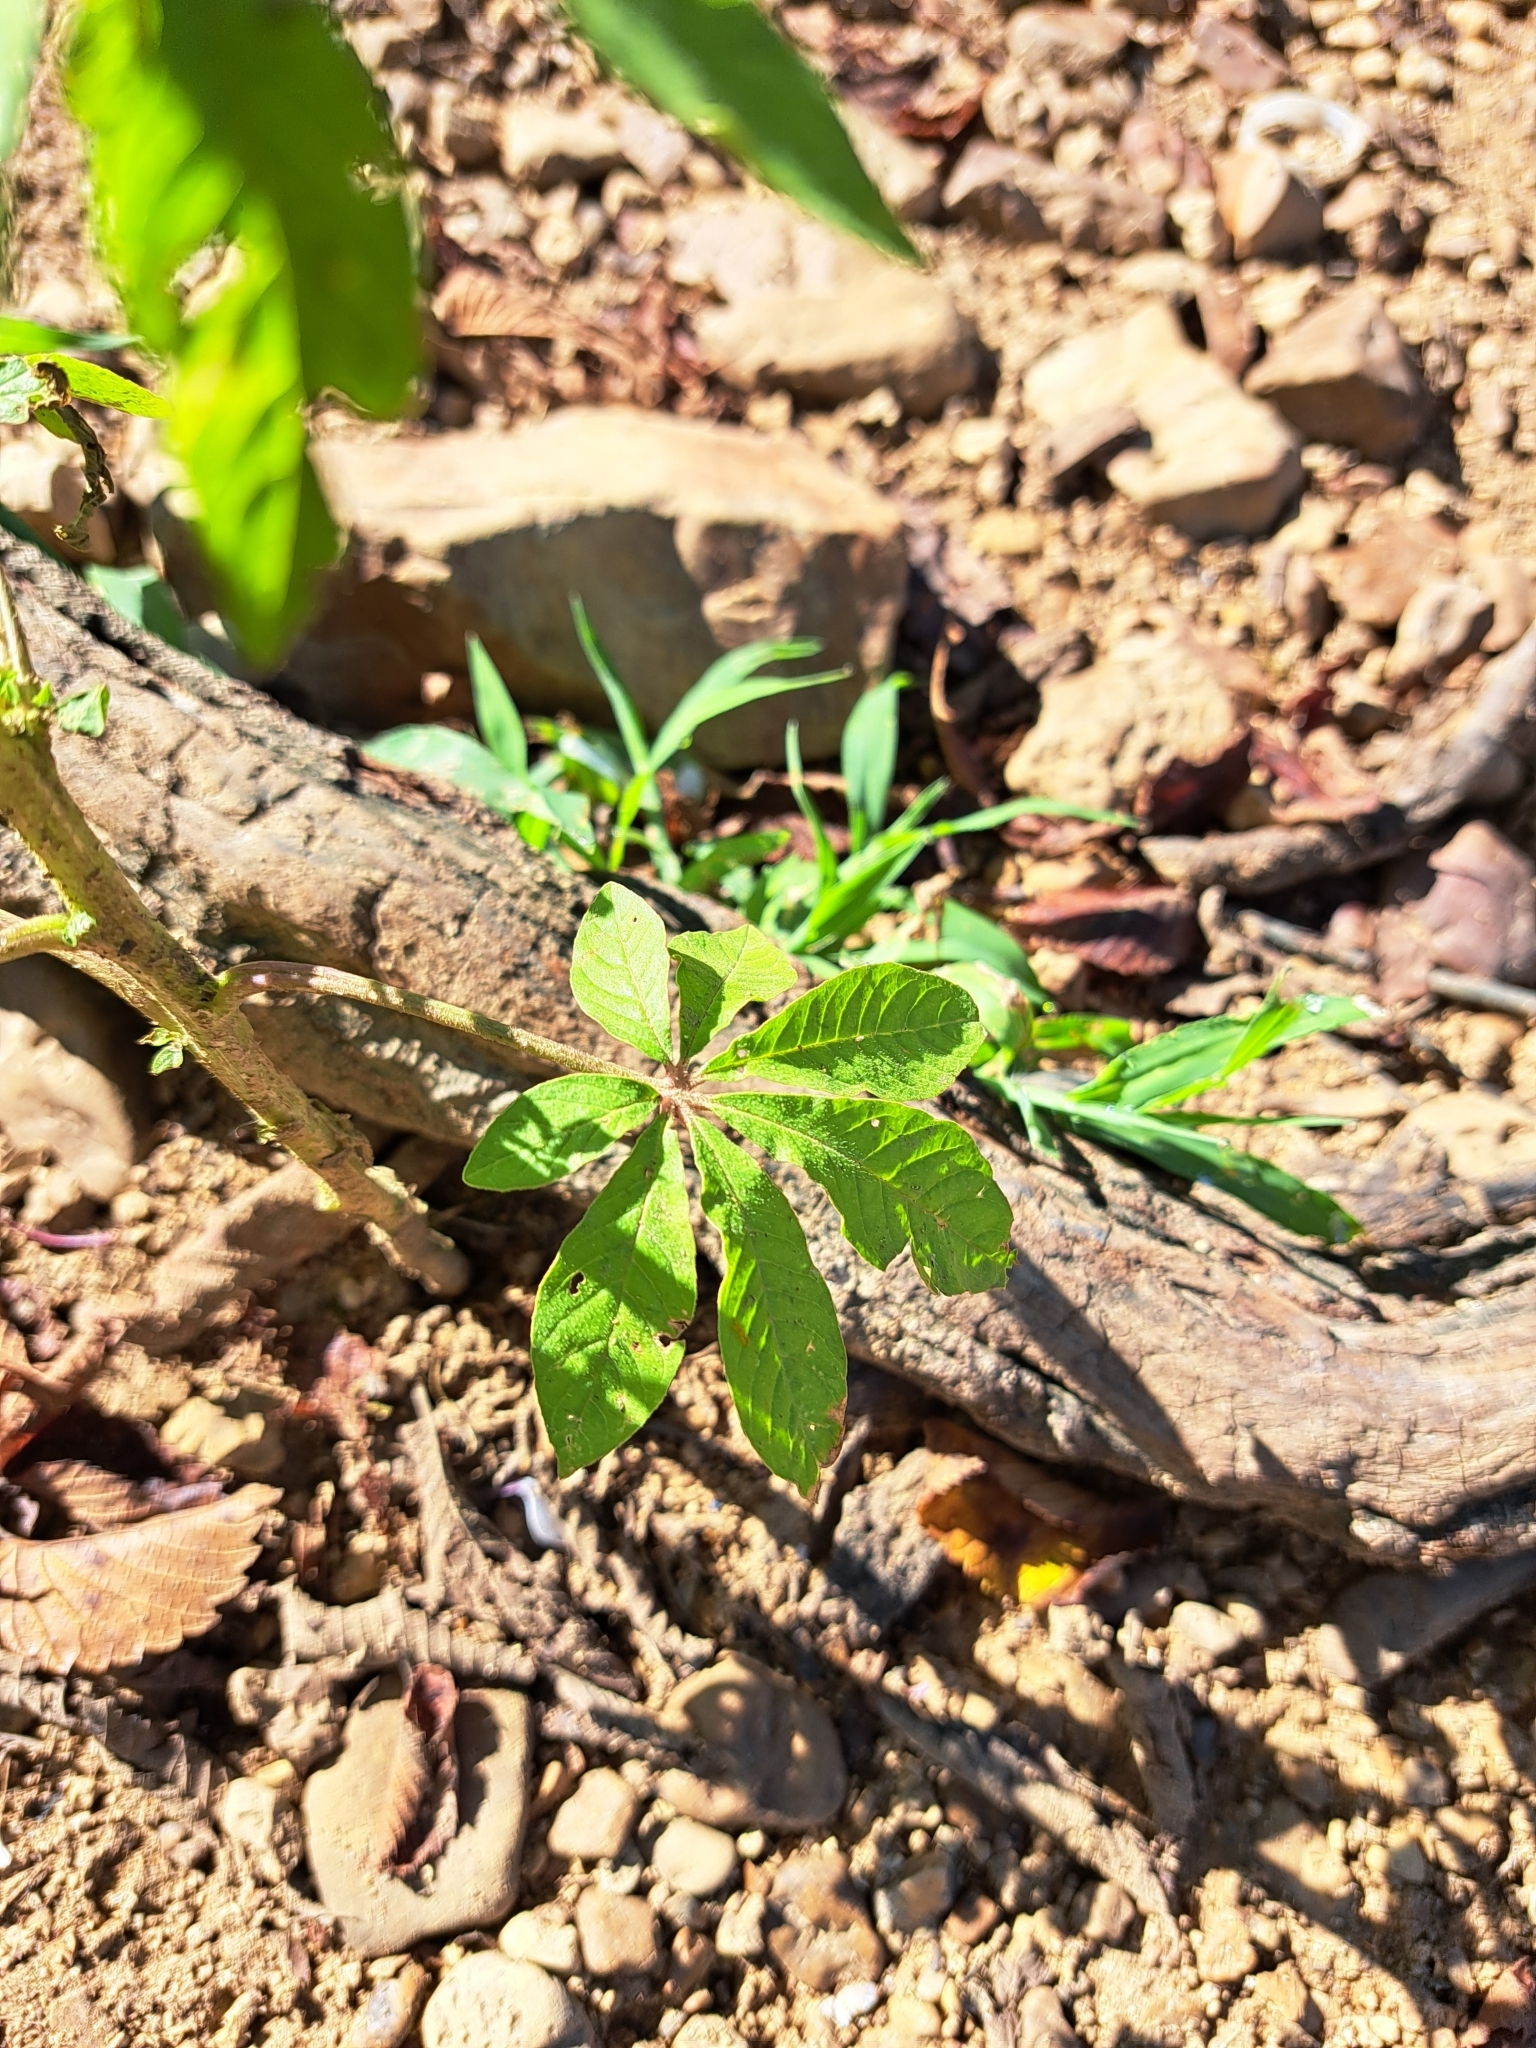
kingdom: Plantae
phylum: Tracheophyta
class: Magnoliopsida
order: Brassicales
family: Cleomaceae
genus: Tarenaya
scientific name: Tarenaya houtteana
